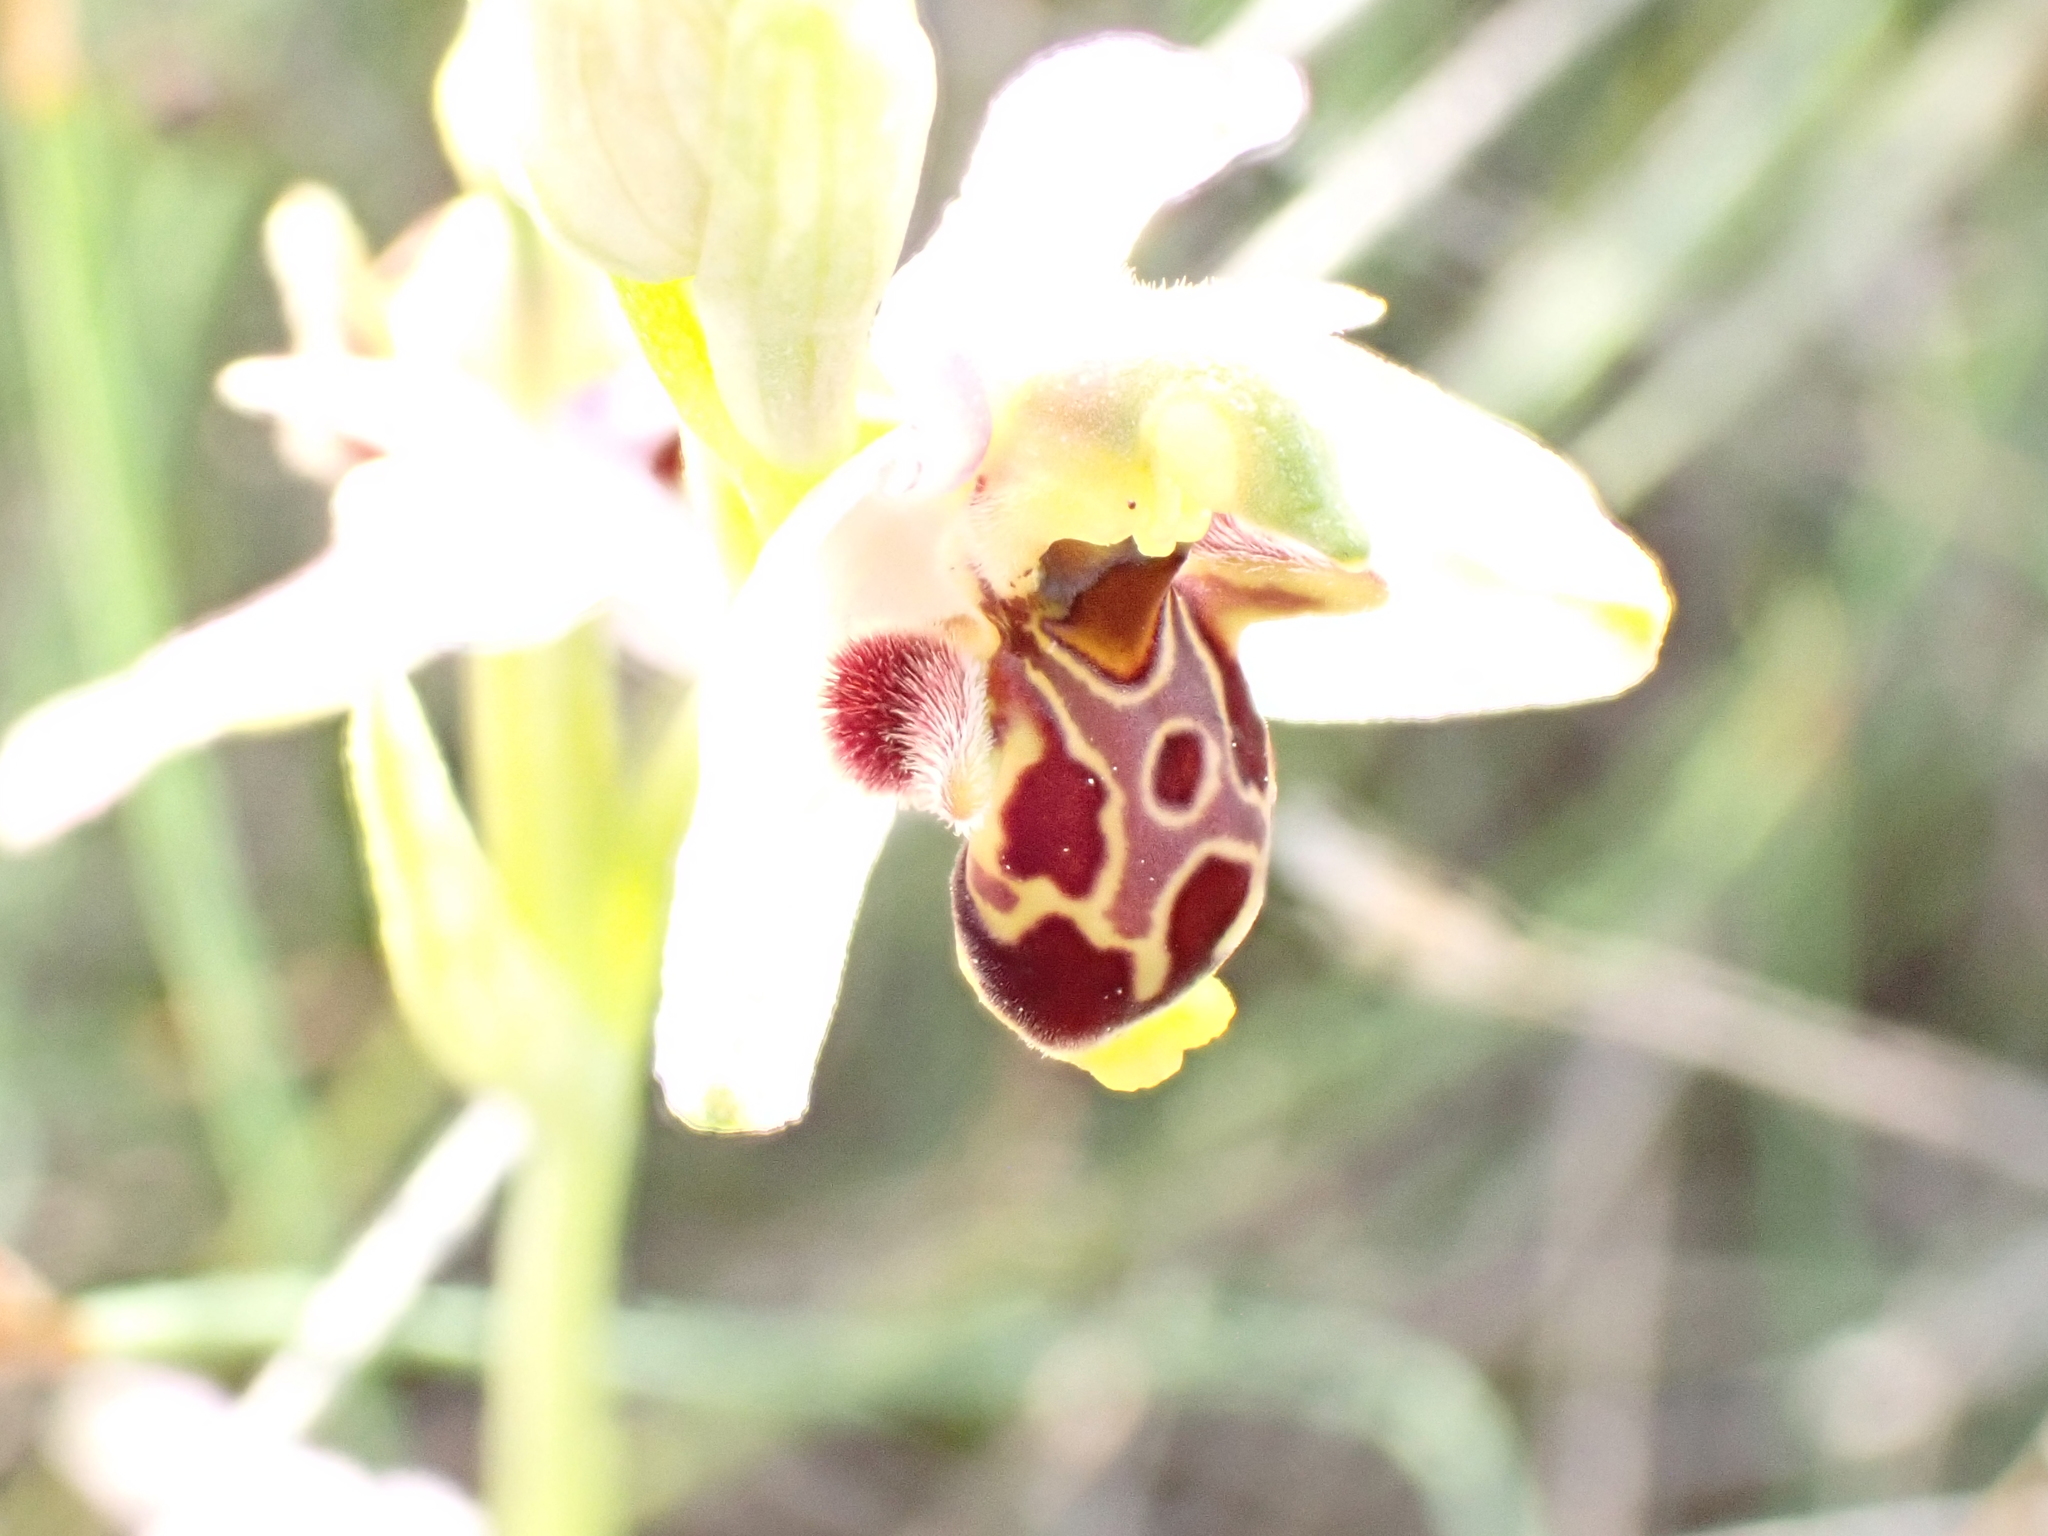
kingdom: Plantae
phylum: Tracheophyta
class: Liliopsida
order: Asparagales
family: Orchidaceae
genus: Ophrys
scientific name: Ophrys scolopax
